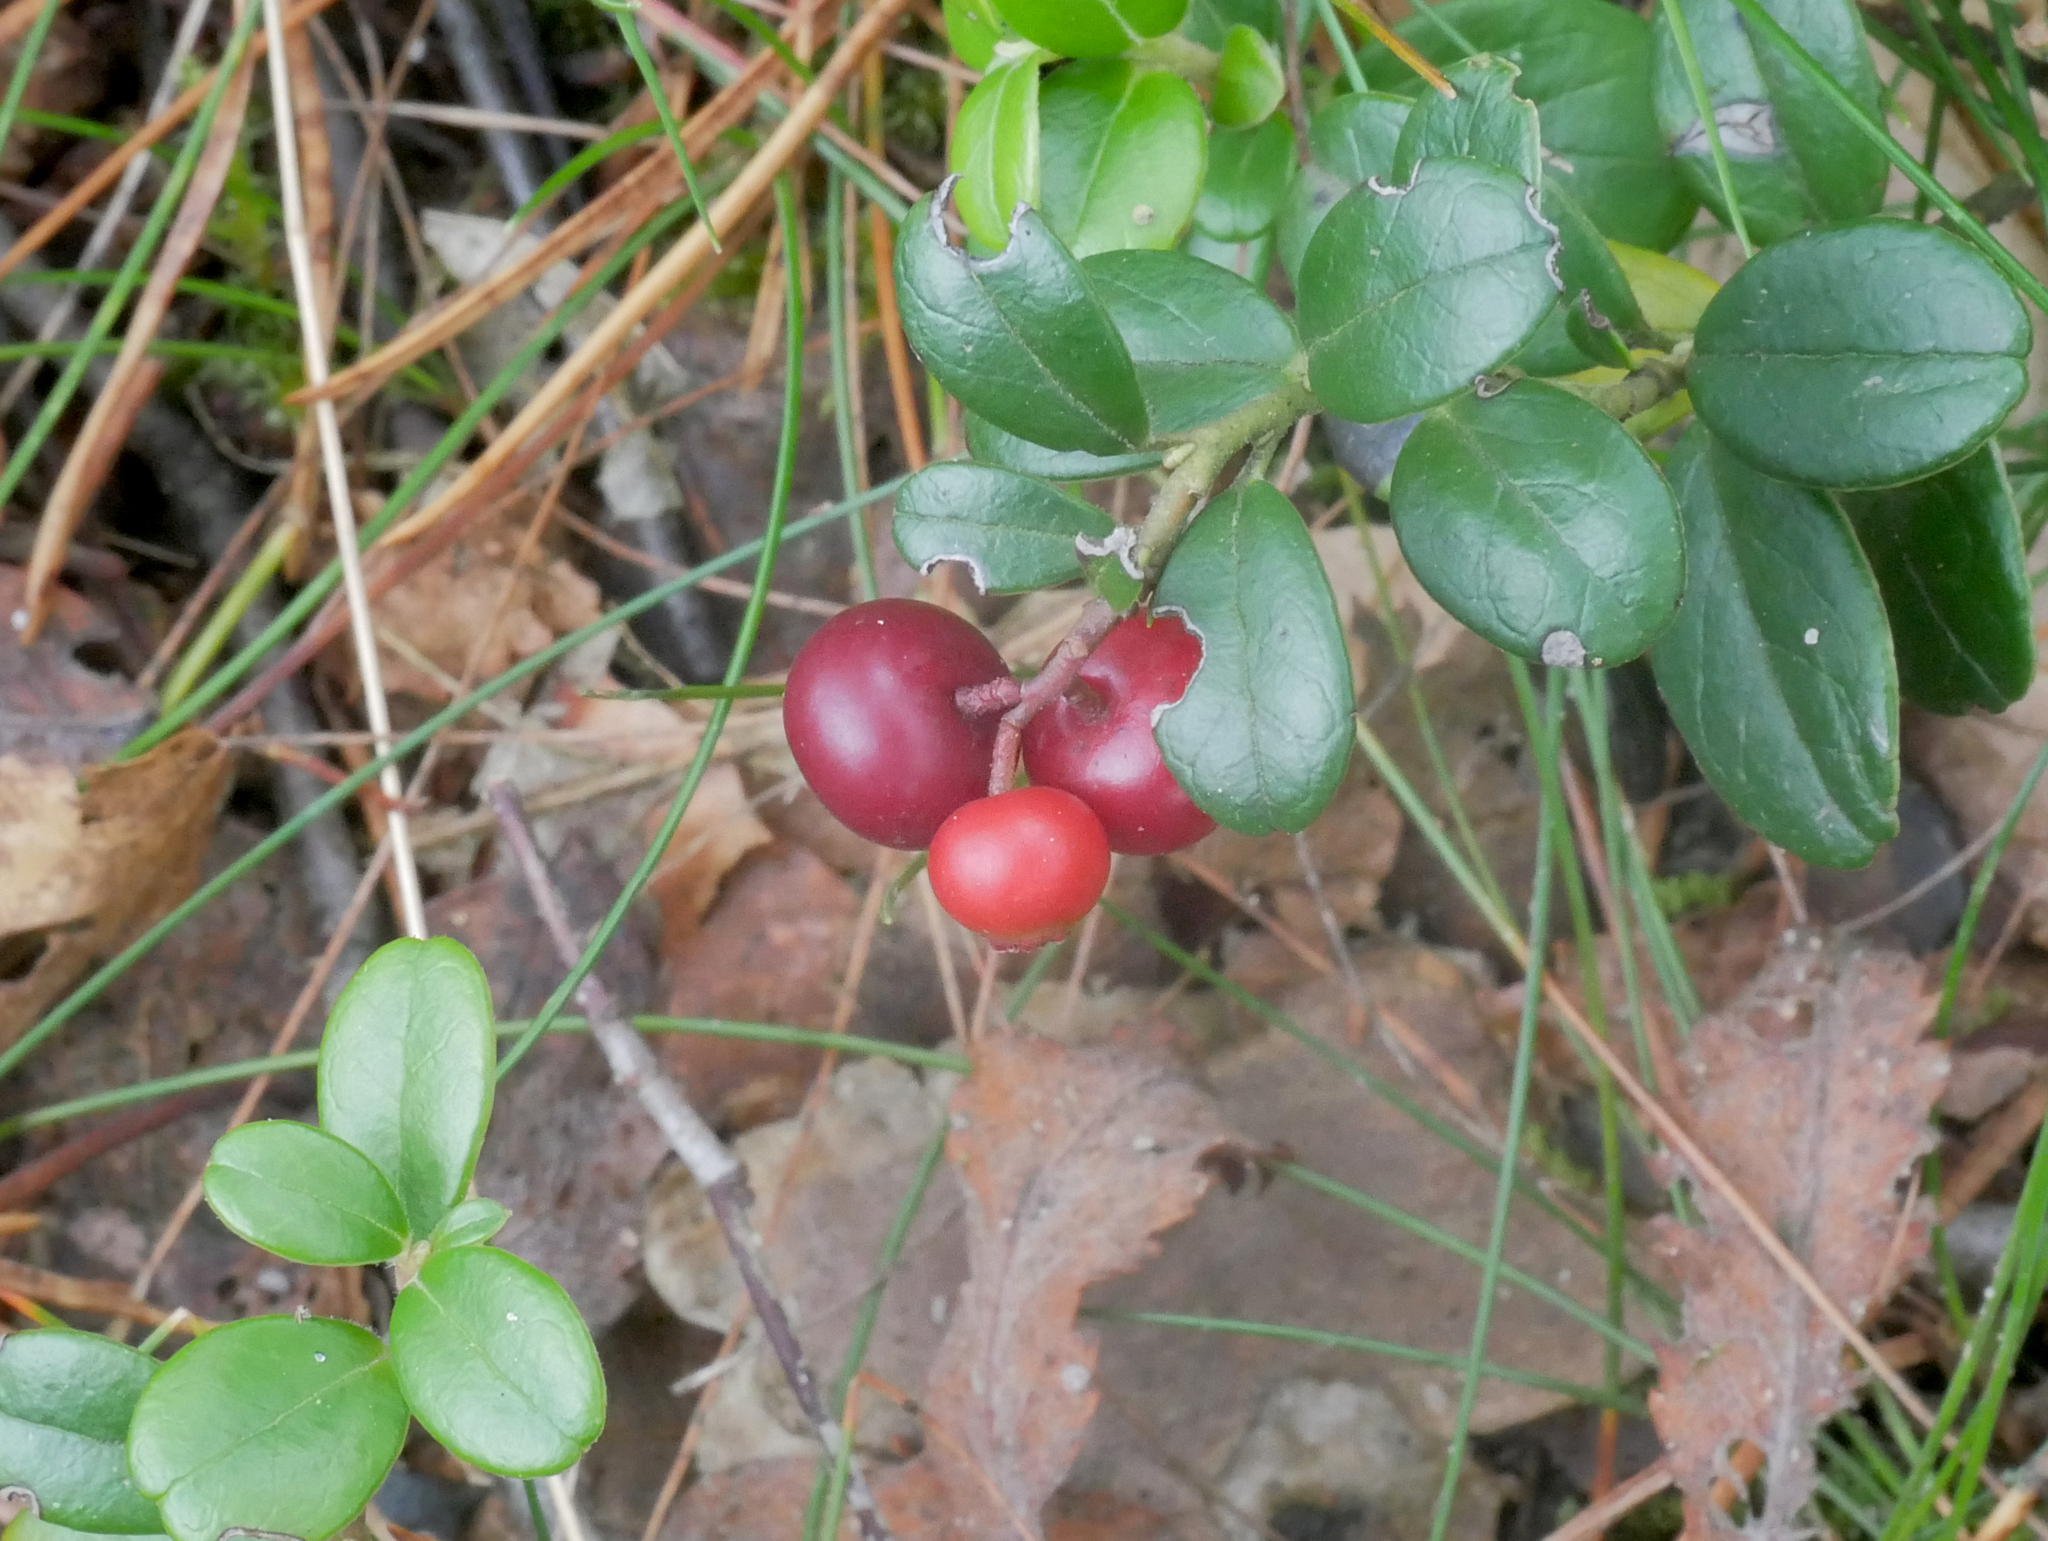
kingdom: Plantae
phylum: Tracheophyta
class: Magnoliopsida
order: Ericales
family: Ericaceae
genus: Vaccinium
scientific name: Vaccinium vitis-idaea
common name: Cowberry
